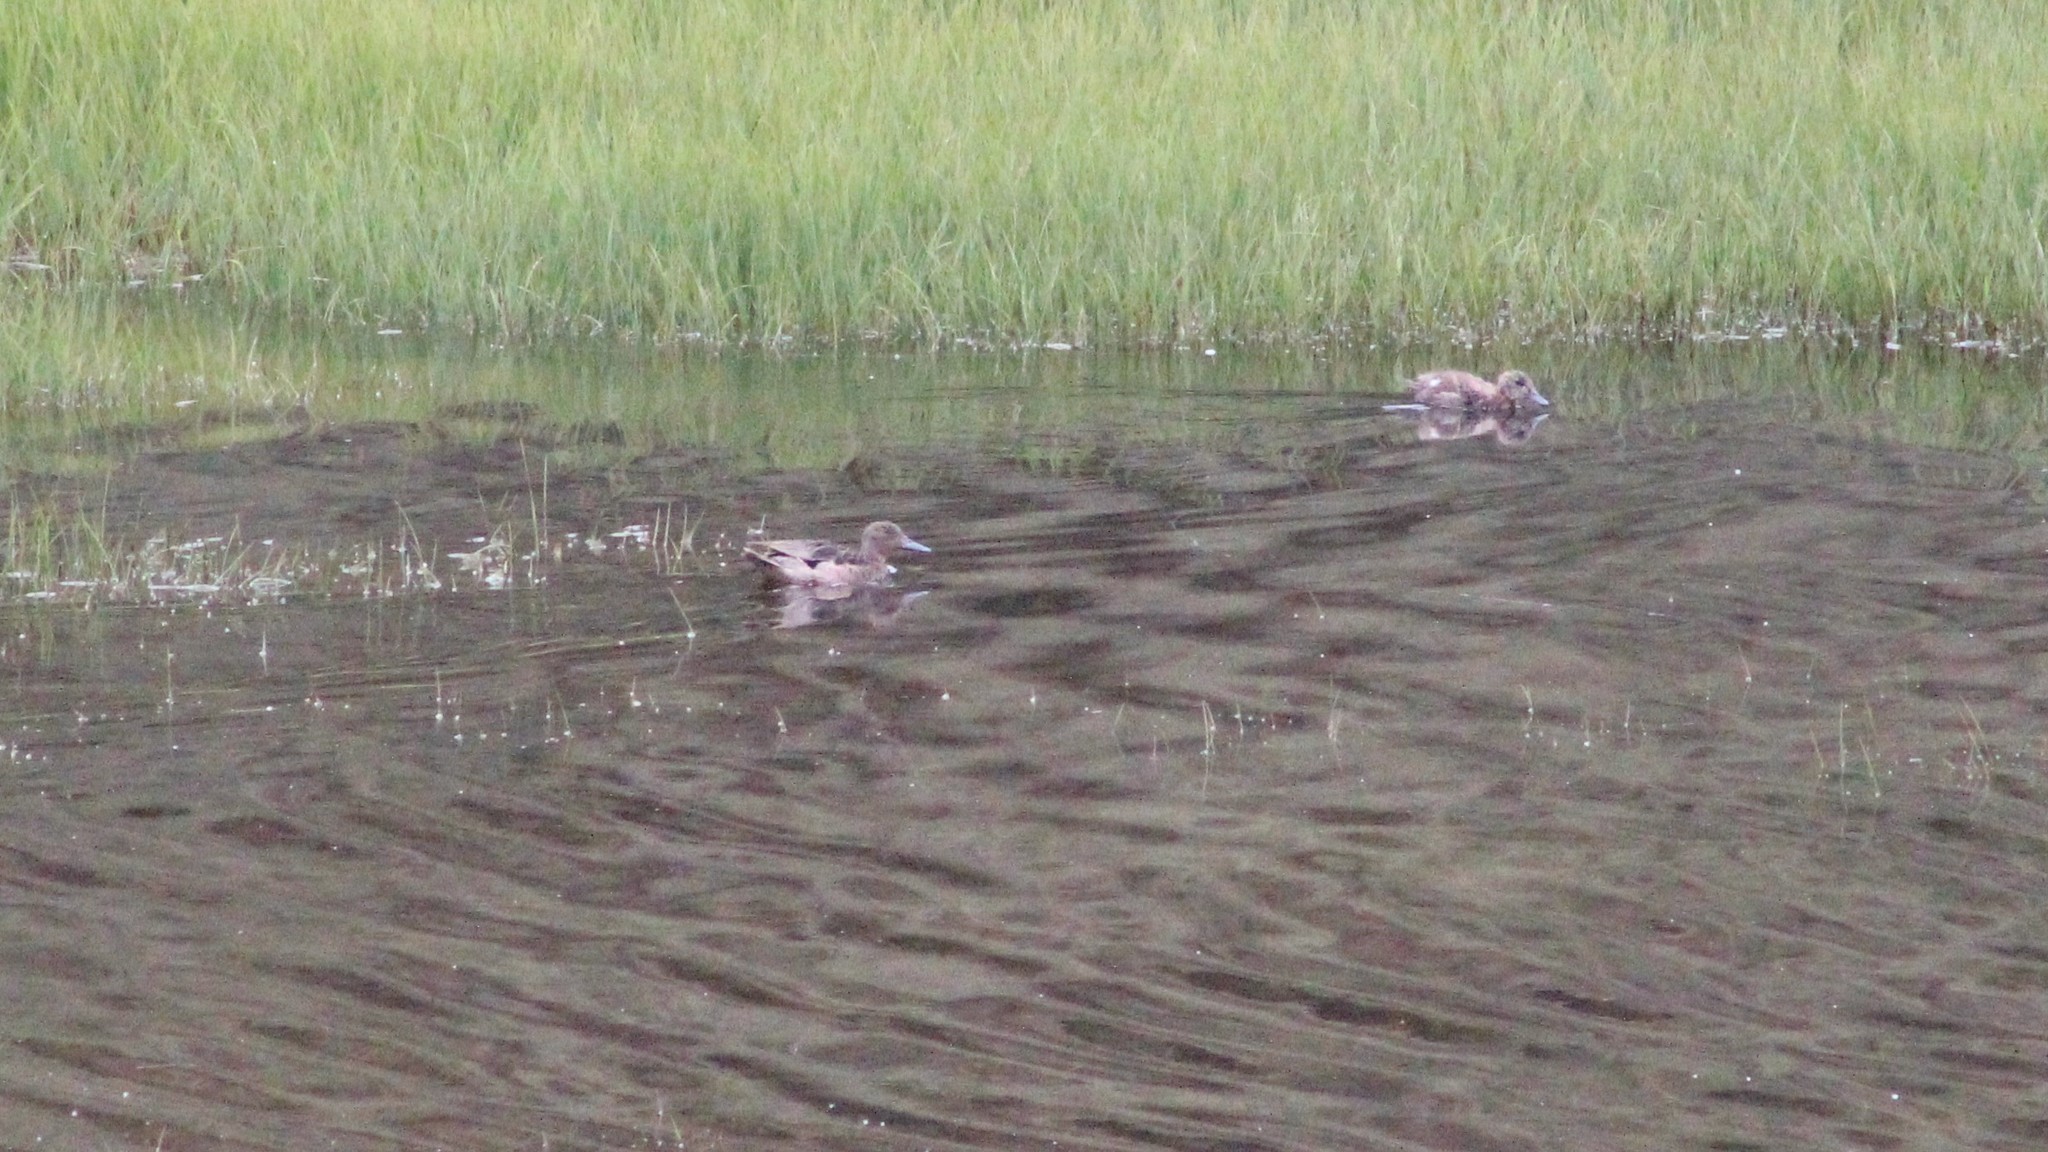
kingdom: Animalia
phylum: Chordata
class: Aves
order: Anseriformes
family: Anatidae
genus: Anas
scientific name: Anas andium
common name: Andean teal
